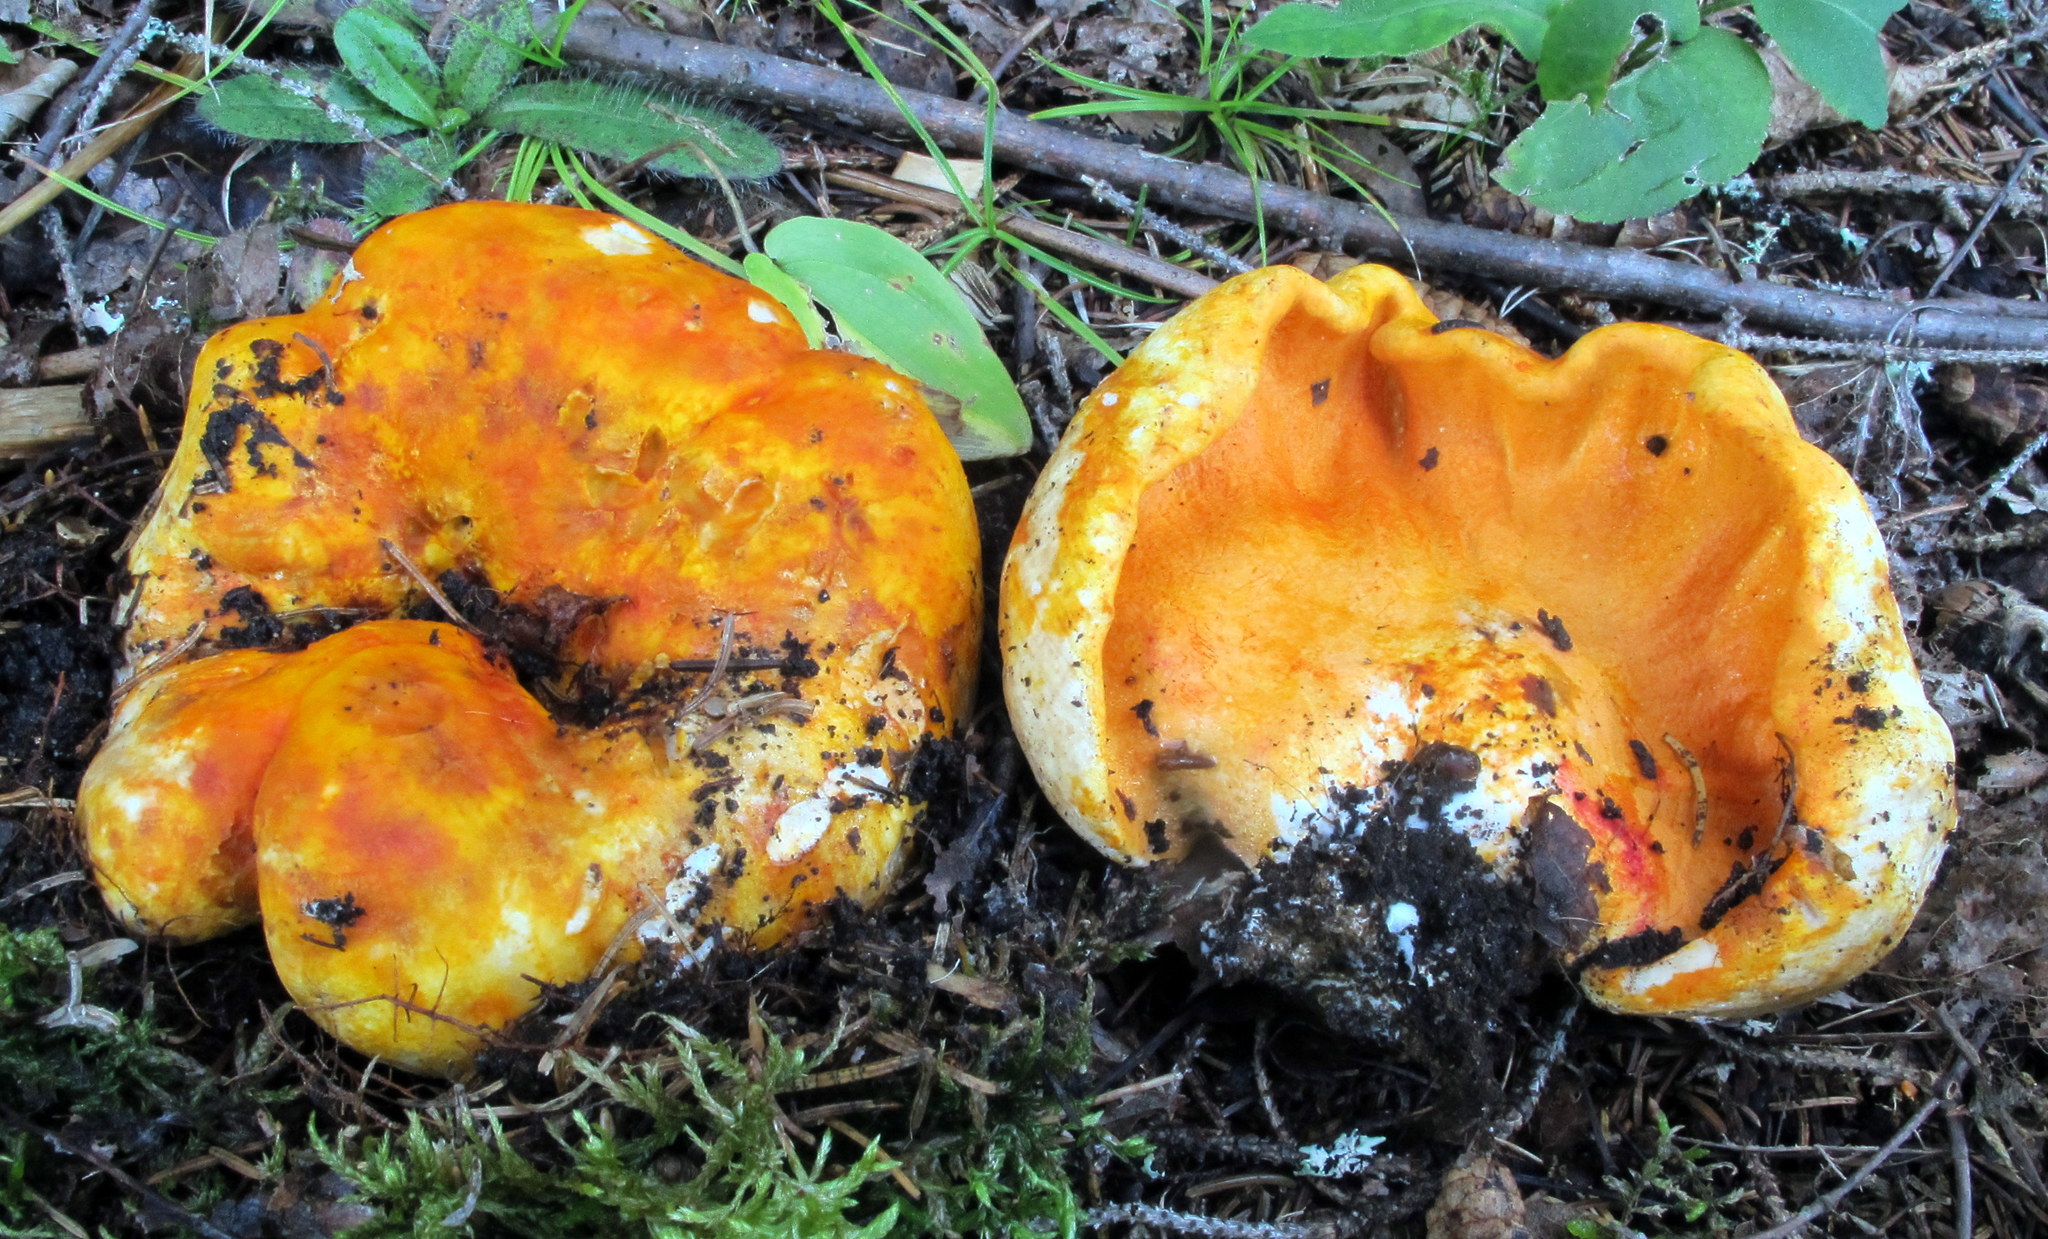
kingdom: Fungi
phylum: Ascomycota
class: Sordariomycetes
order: Hypocreales
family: Hypocreaceae
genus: Hypomyces
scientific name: Hypomyces lactifluorum
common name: Lobster mushroom
